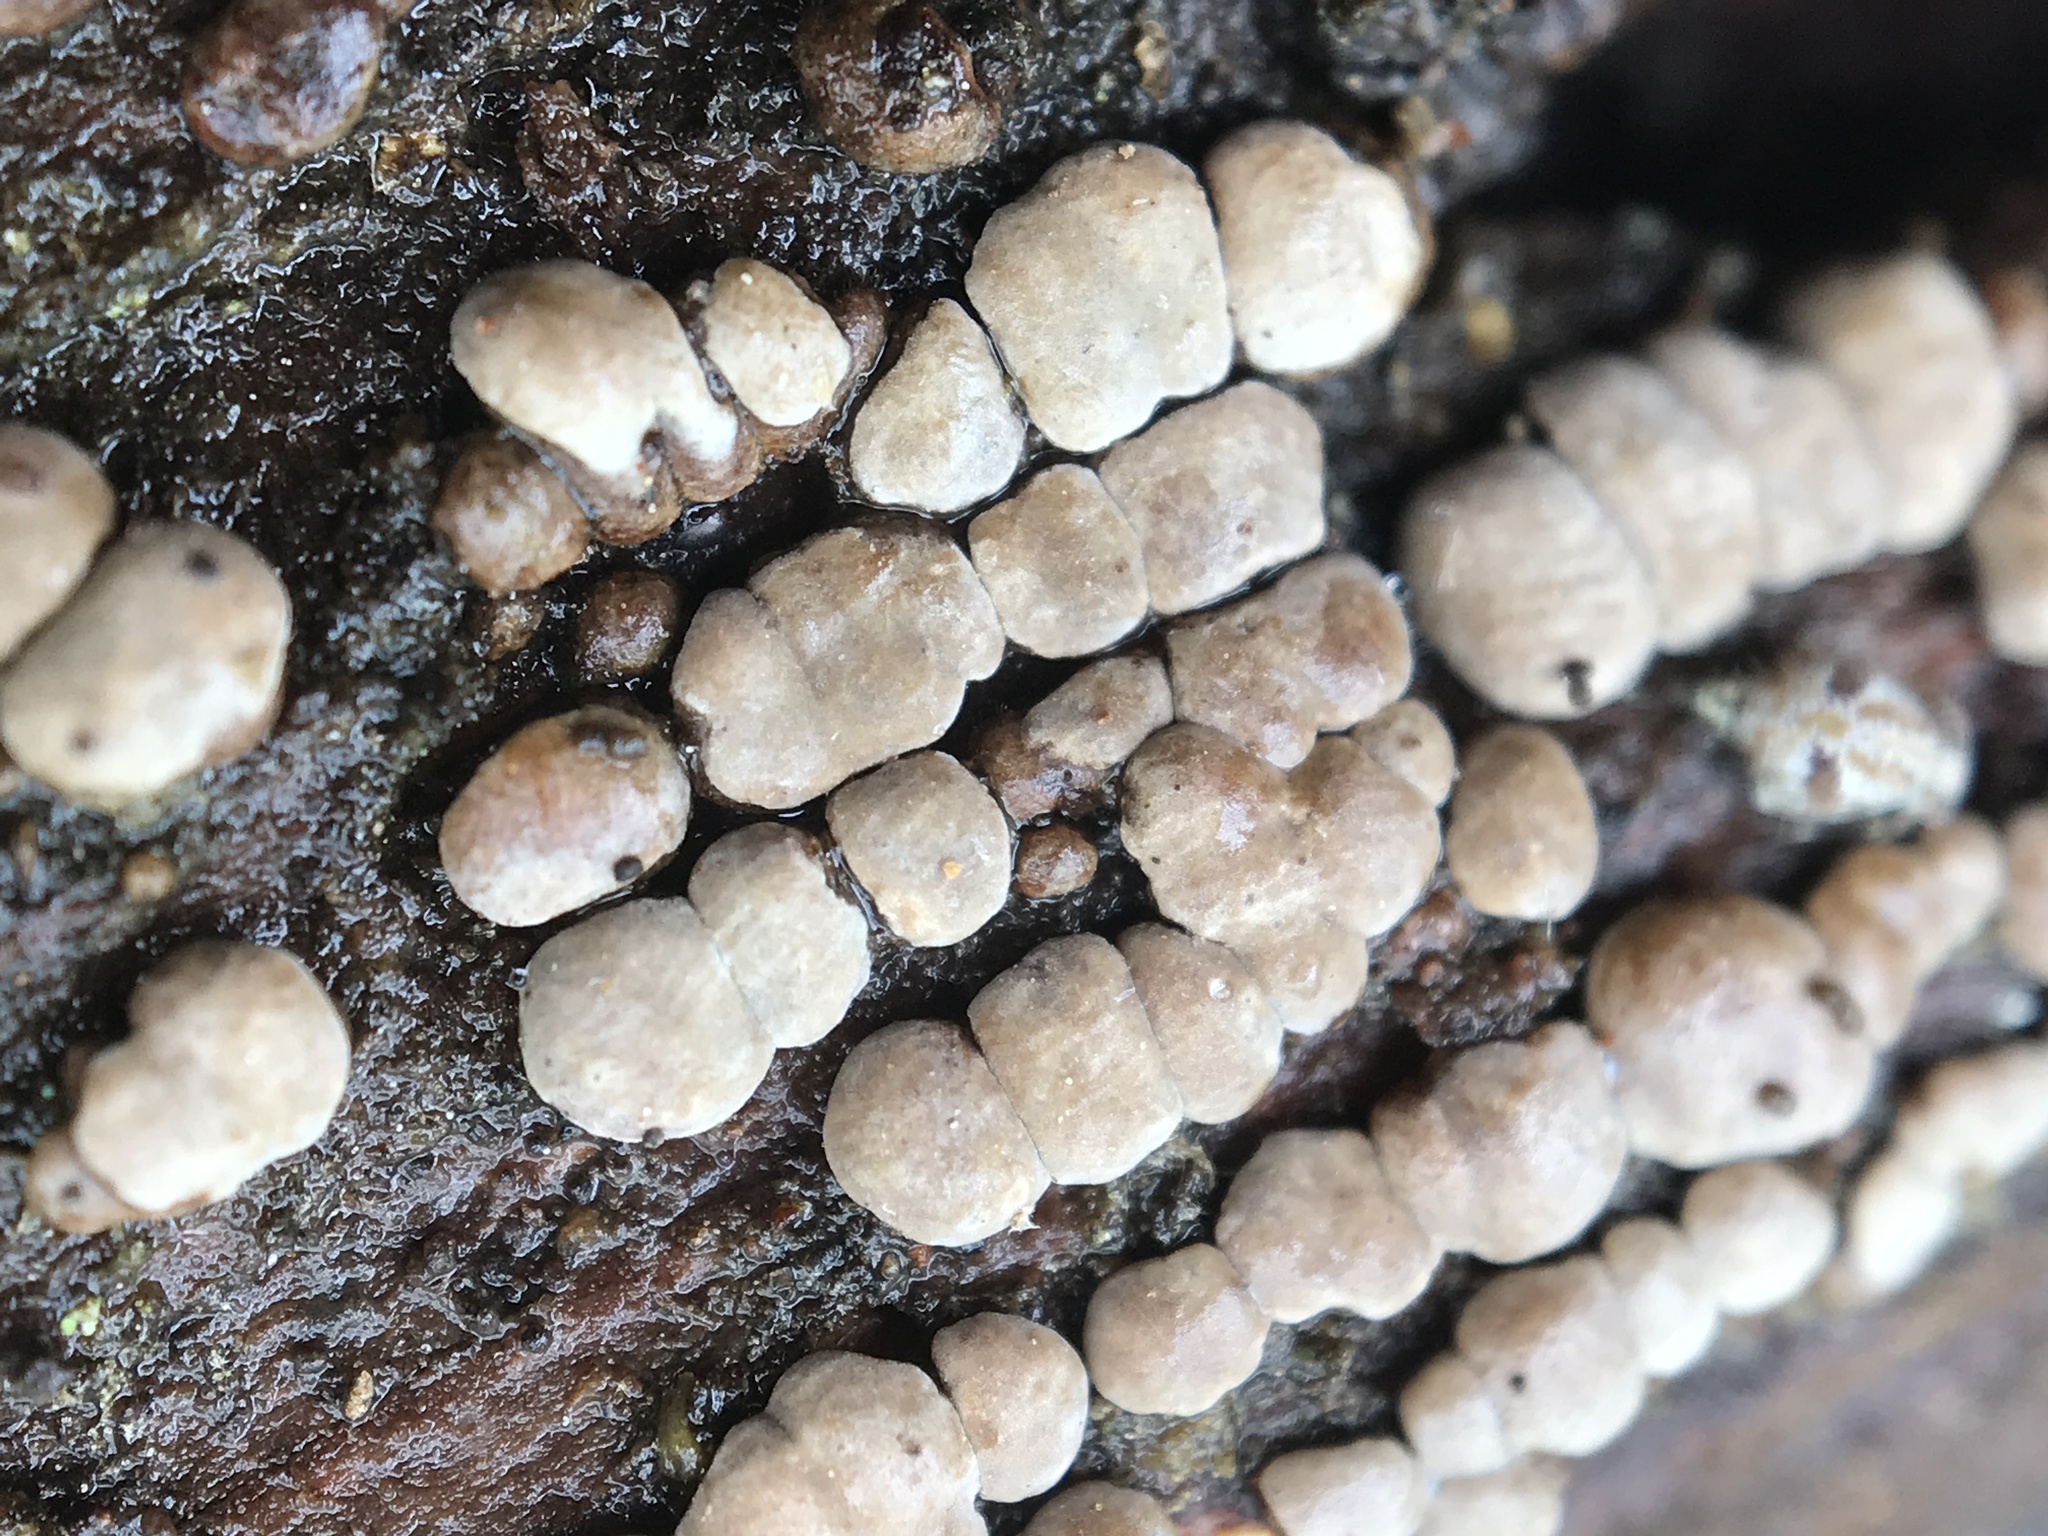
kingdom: Fungi
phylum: Basidiomycota
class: Agaricomycetes
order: Russulales
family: Stereaceae
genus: Xylobolus
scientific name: Xylobolus frustulatus
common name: Ceramic parchment
